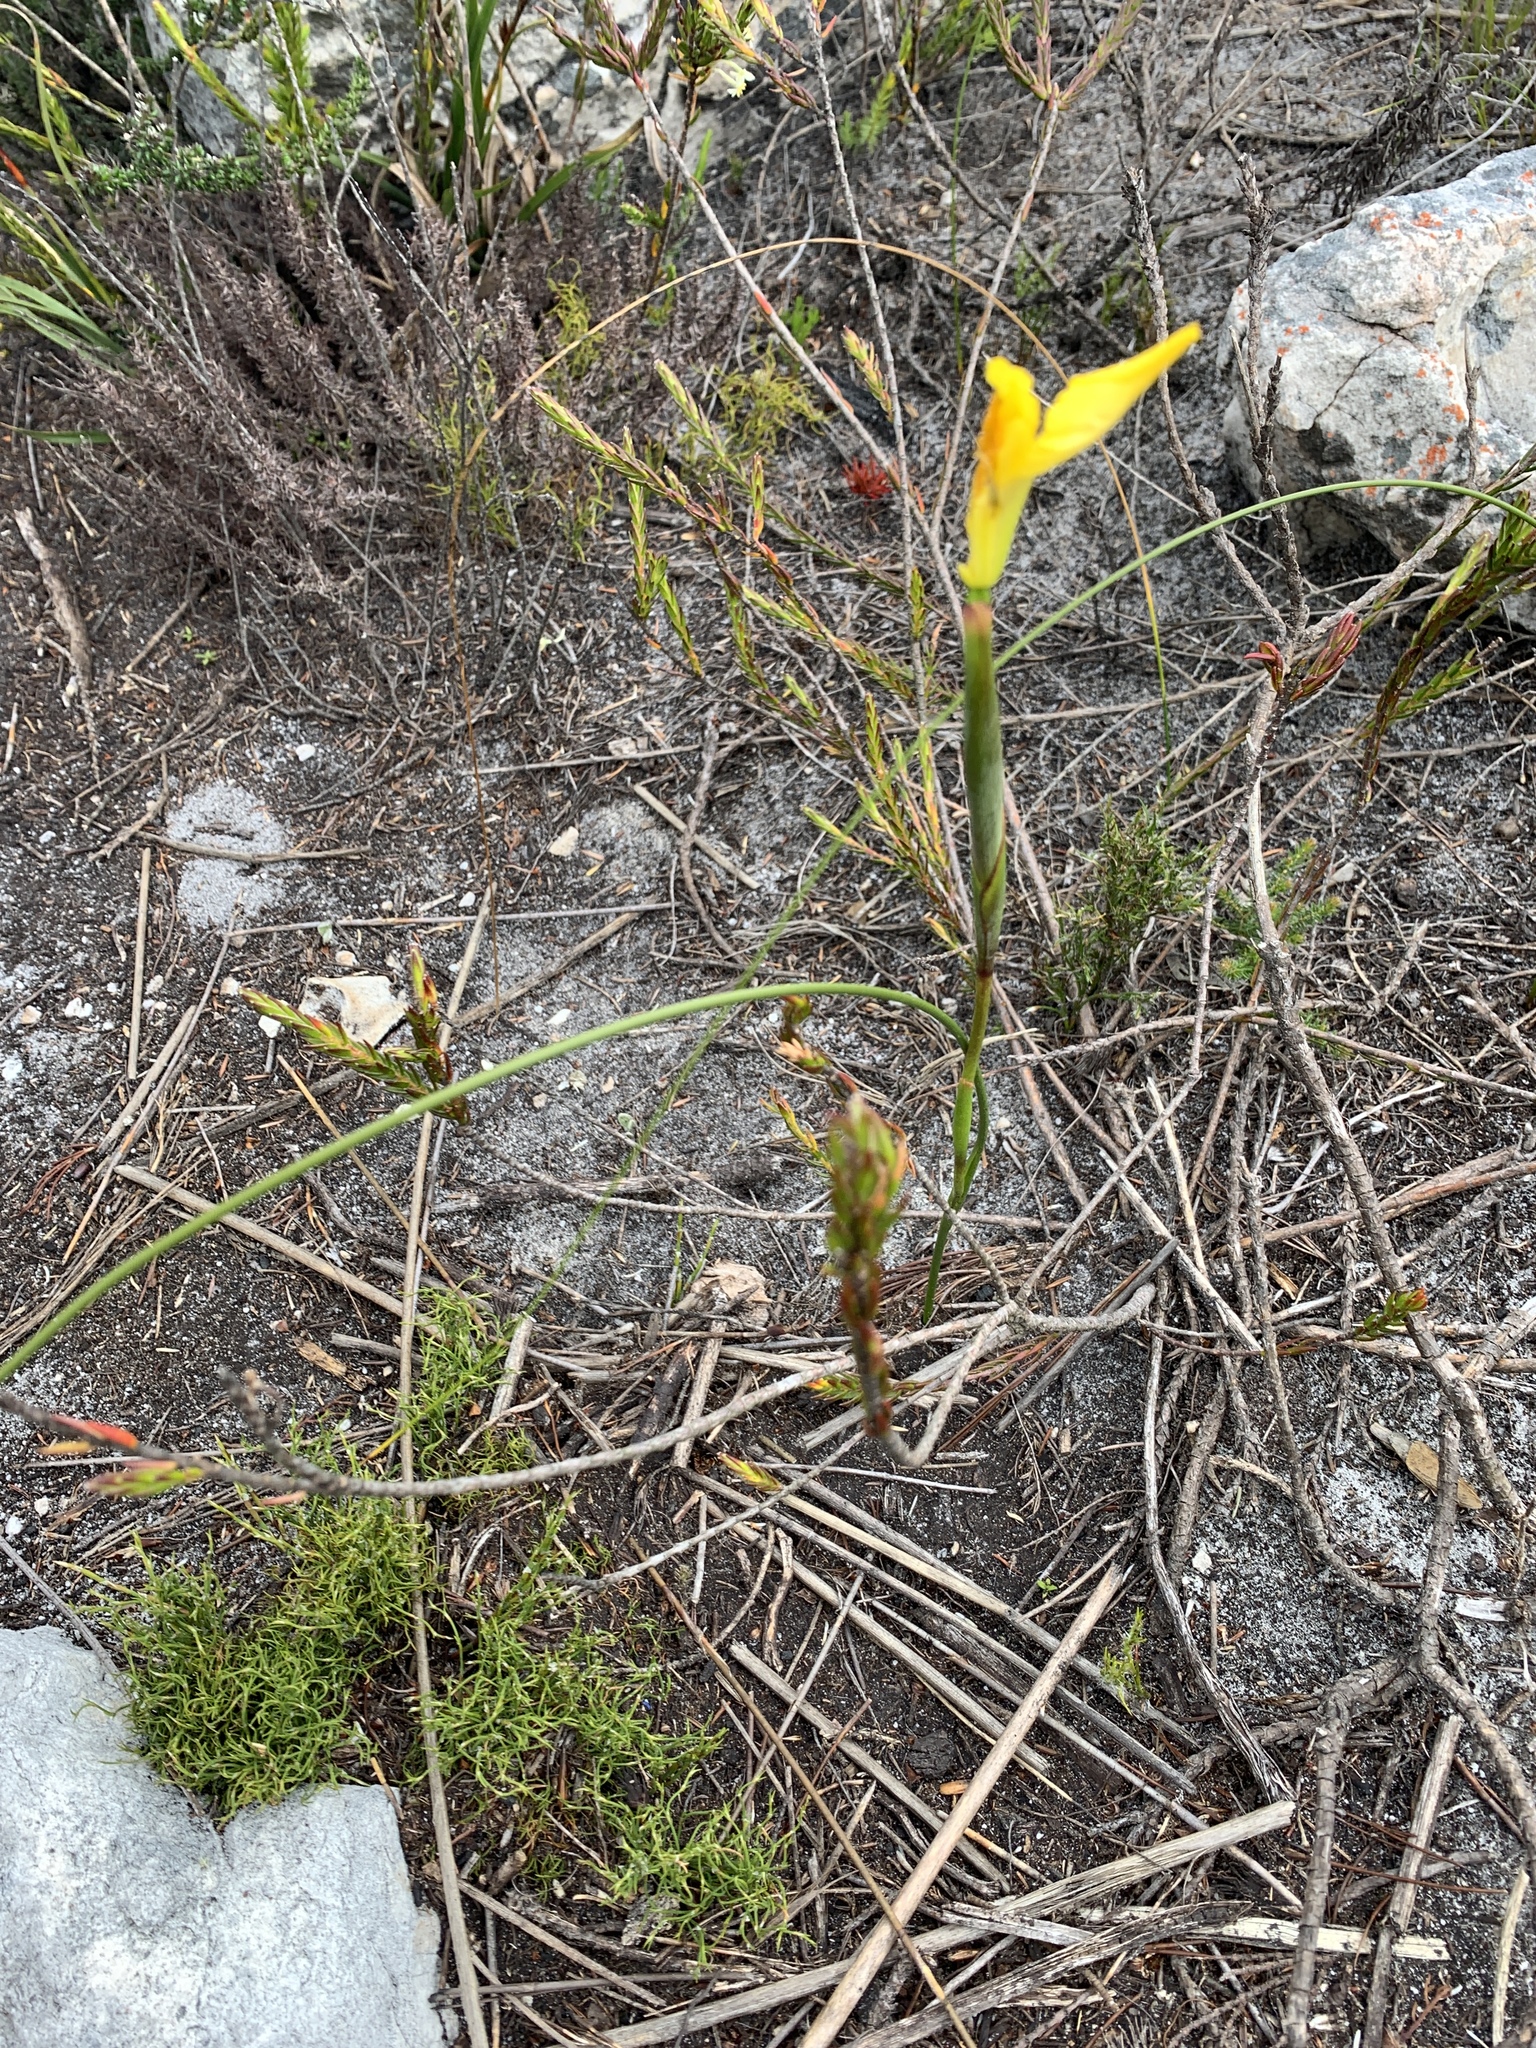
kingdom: Plantae
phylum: Tracheophyta
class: Liliopsida
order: Asparagales
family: Iridaceae
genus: Moraea
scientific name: Moraea neglecta
